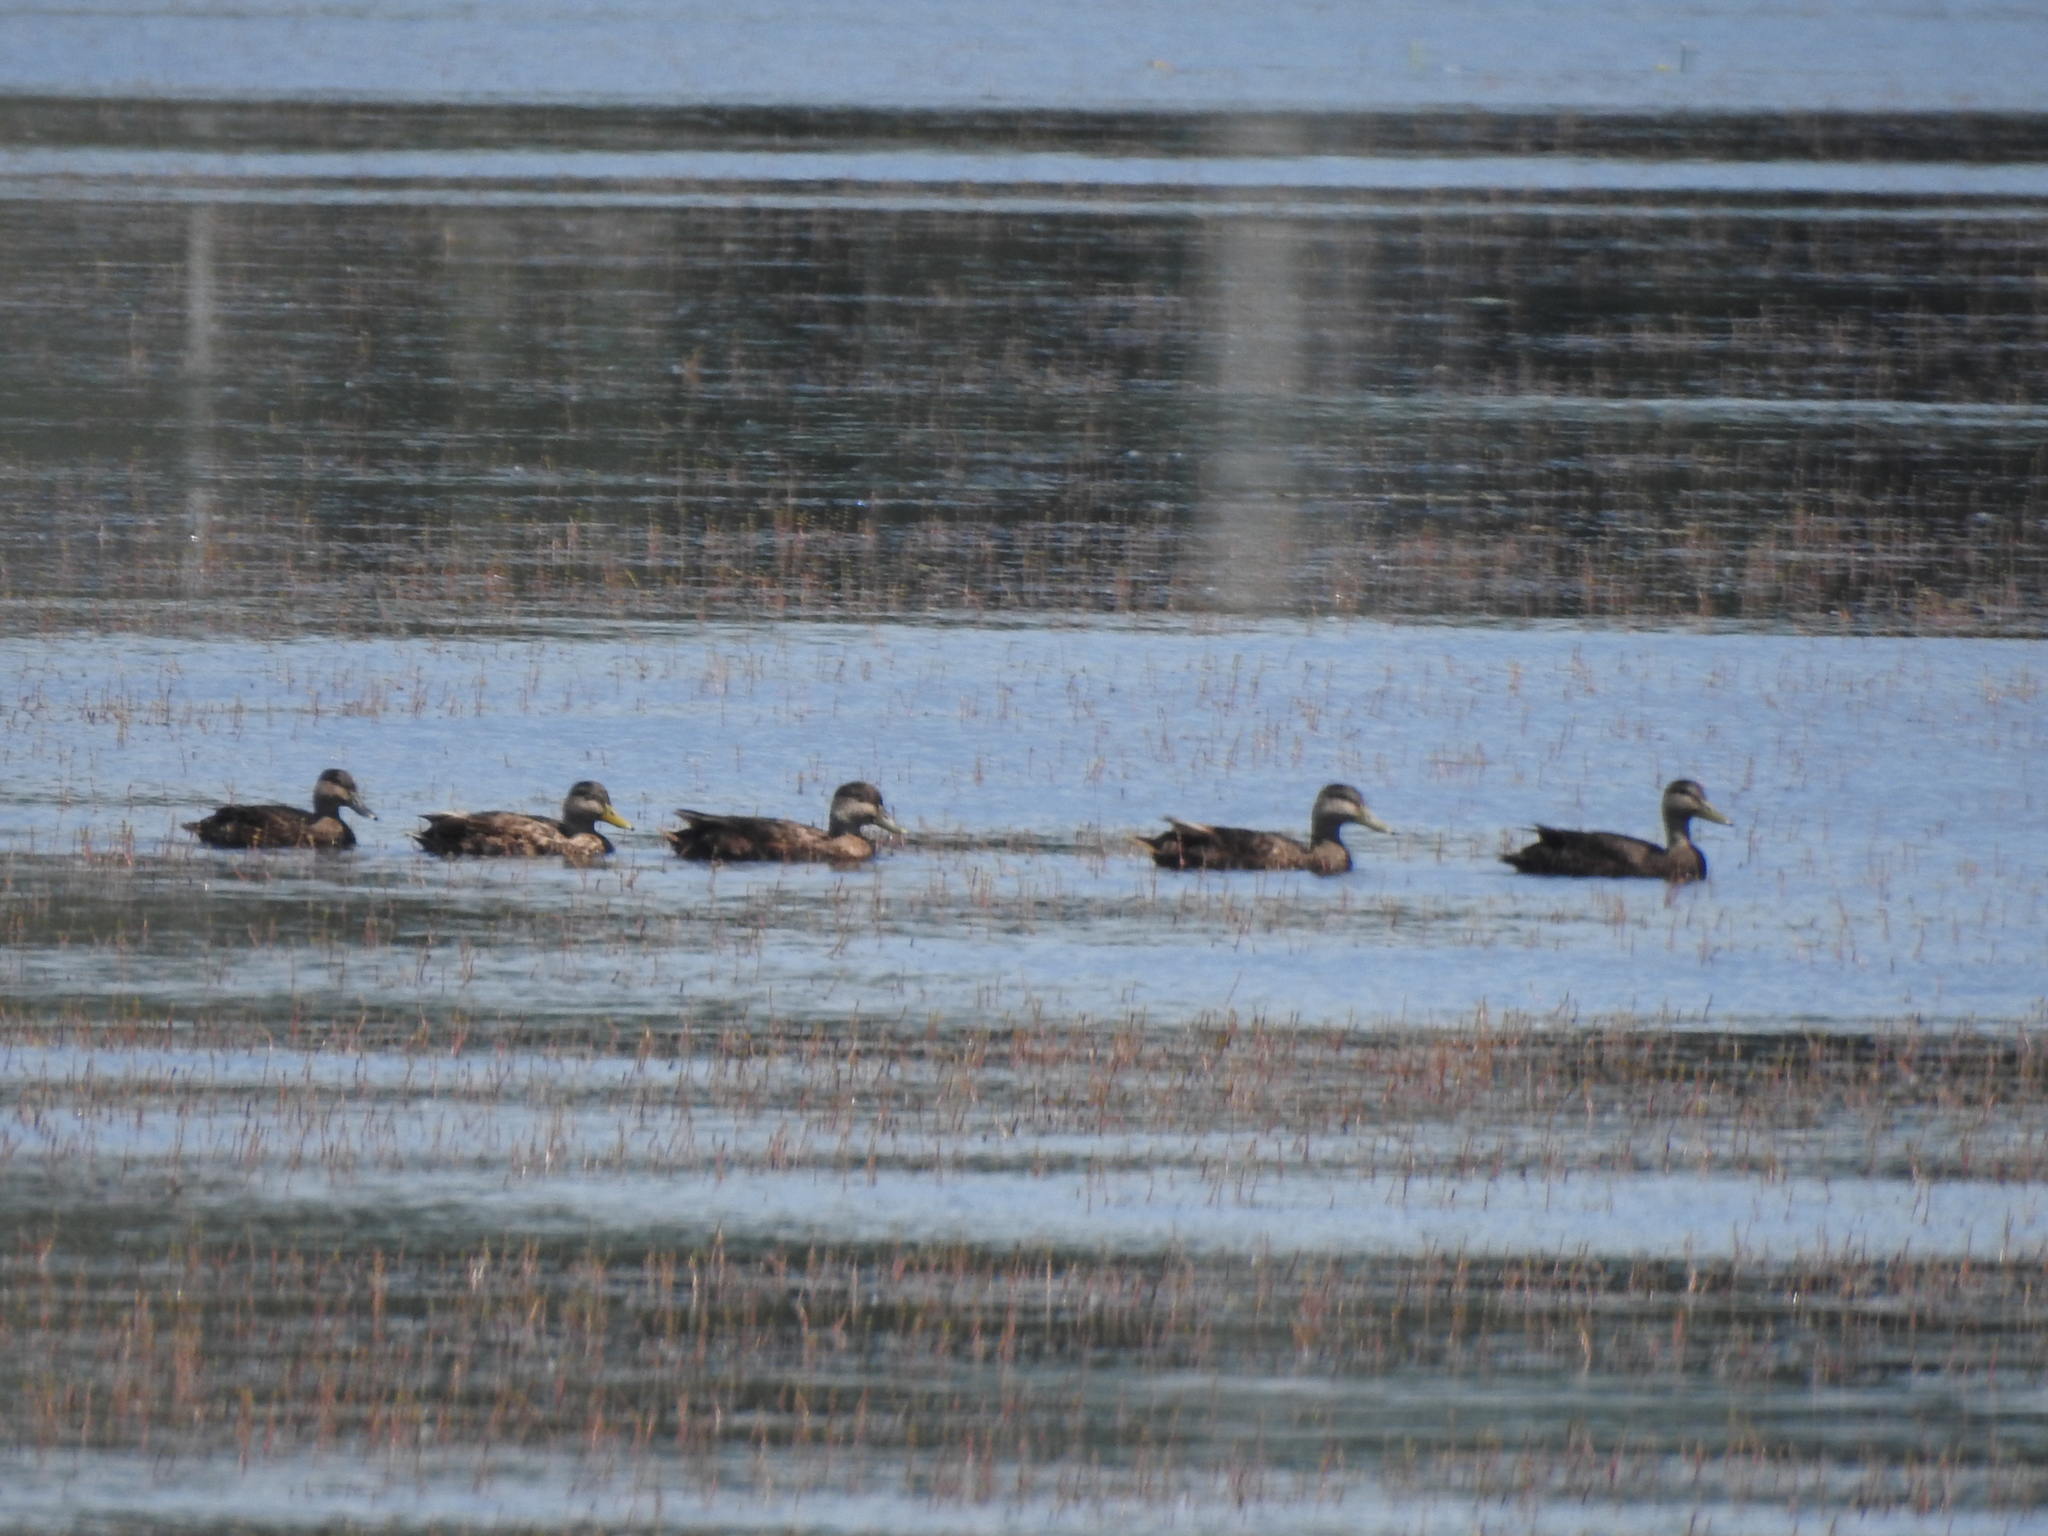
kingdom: Animalia
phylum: Chordata
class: Aves
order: Anseriformes
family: Anatidae
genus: Anas
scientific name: Anas rubripes
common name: American black duck
